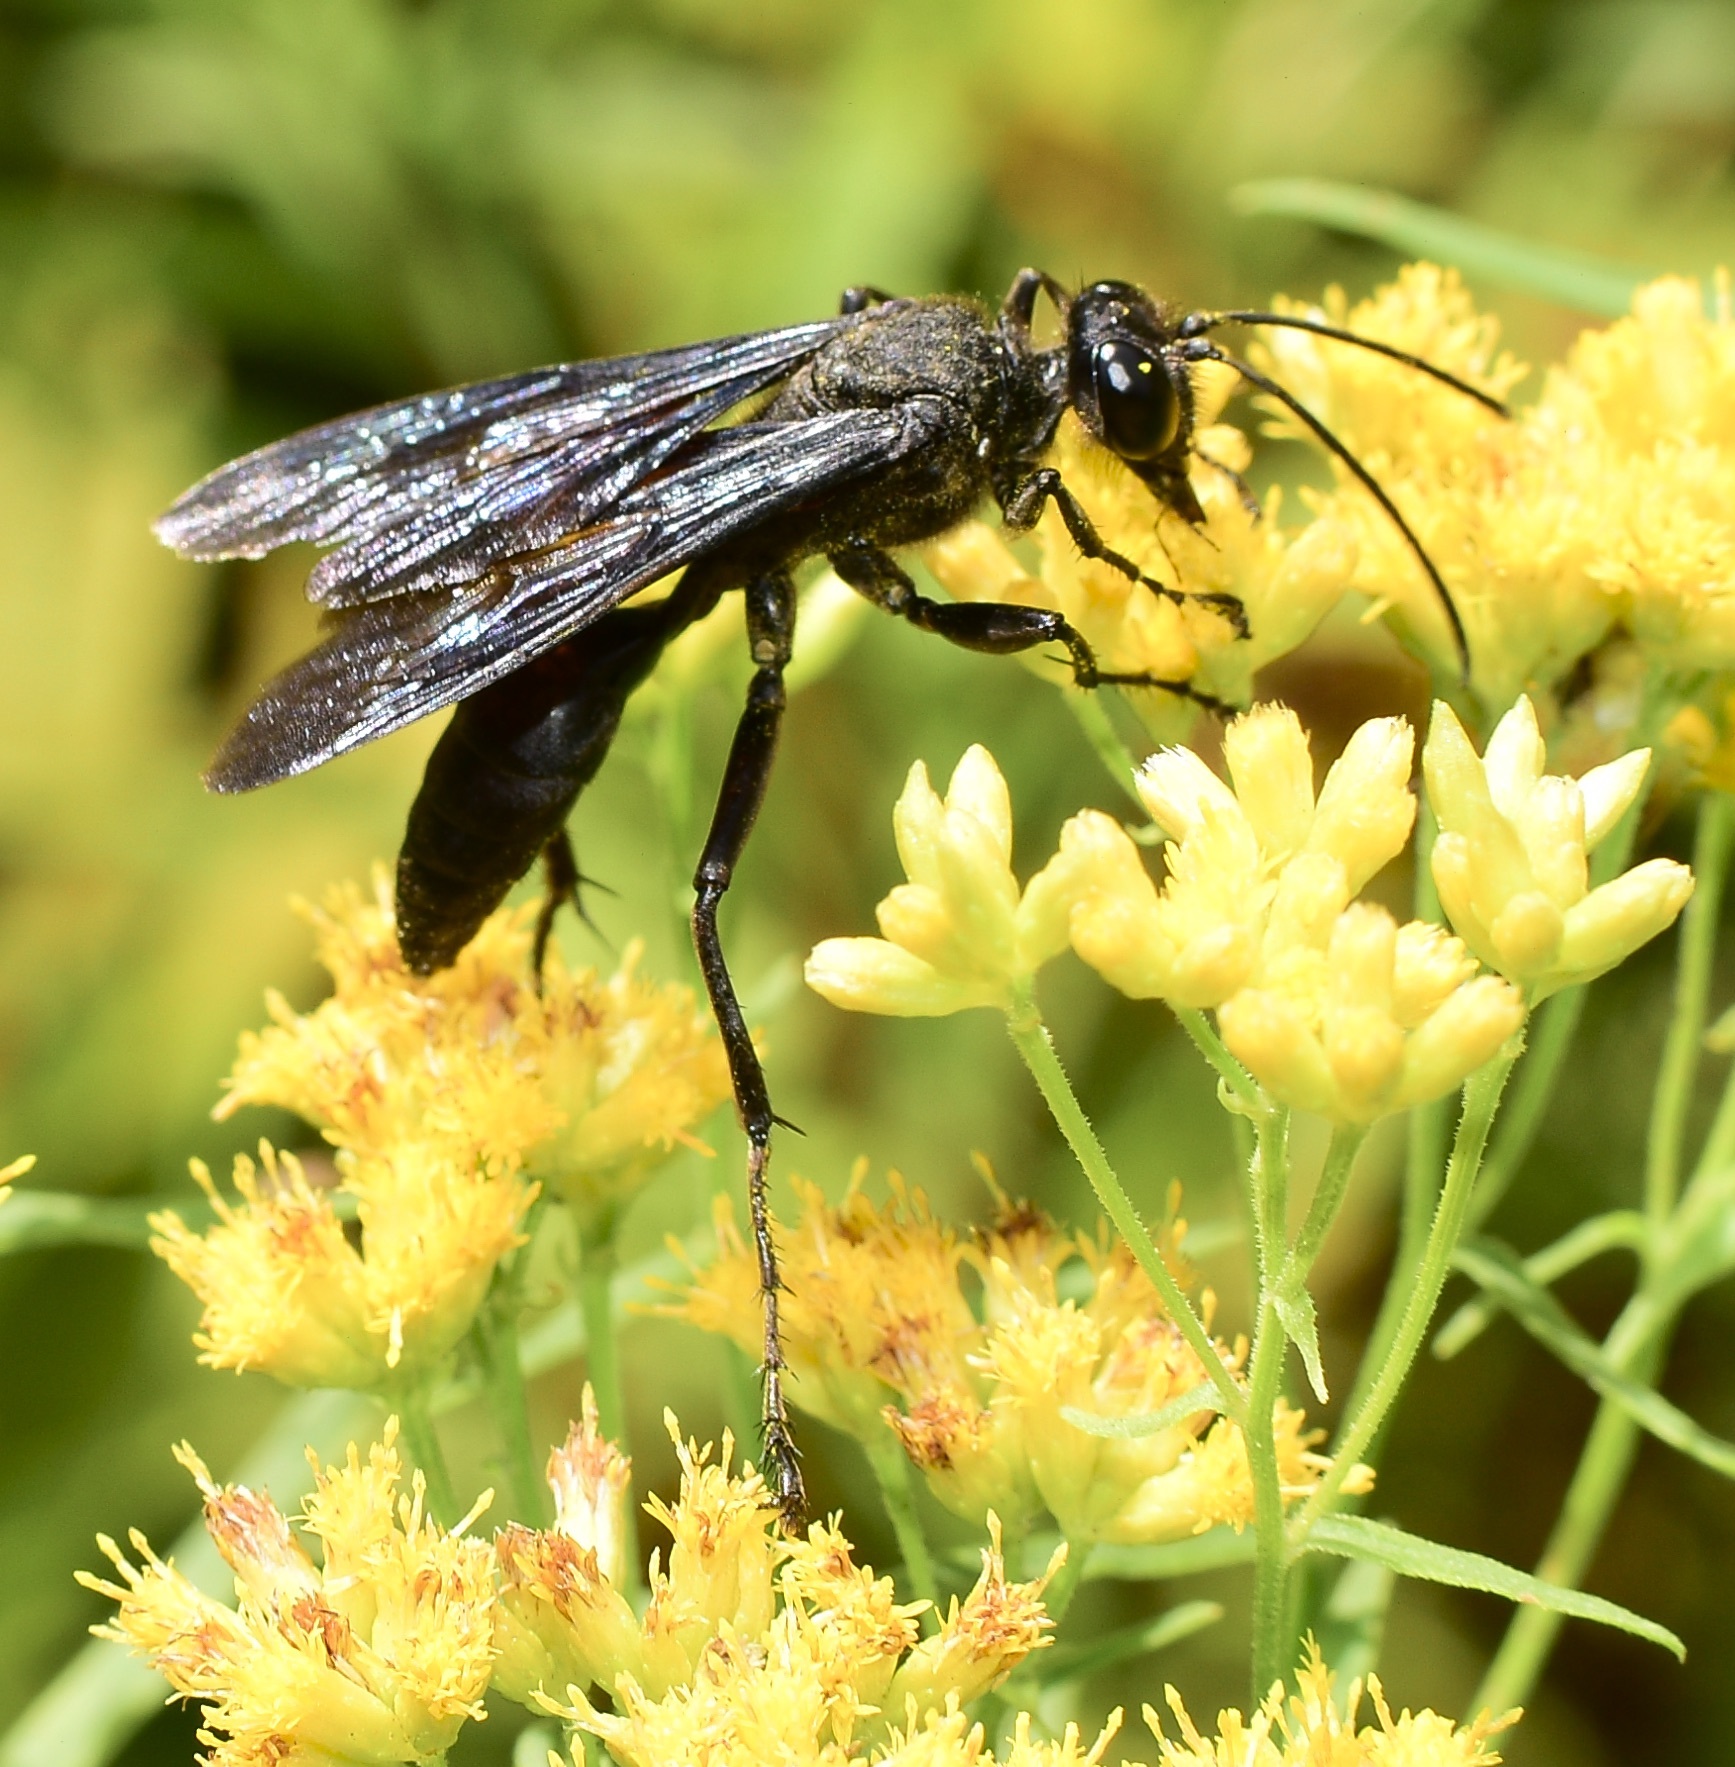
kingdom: Animalia
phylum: Arthropoda
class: Insecta
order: Hymenoptera
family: Sphecidae
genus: Sphex
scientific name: Sphex pensylvanicus
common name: Great black digger wasp
